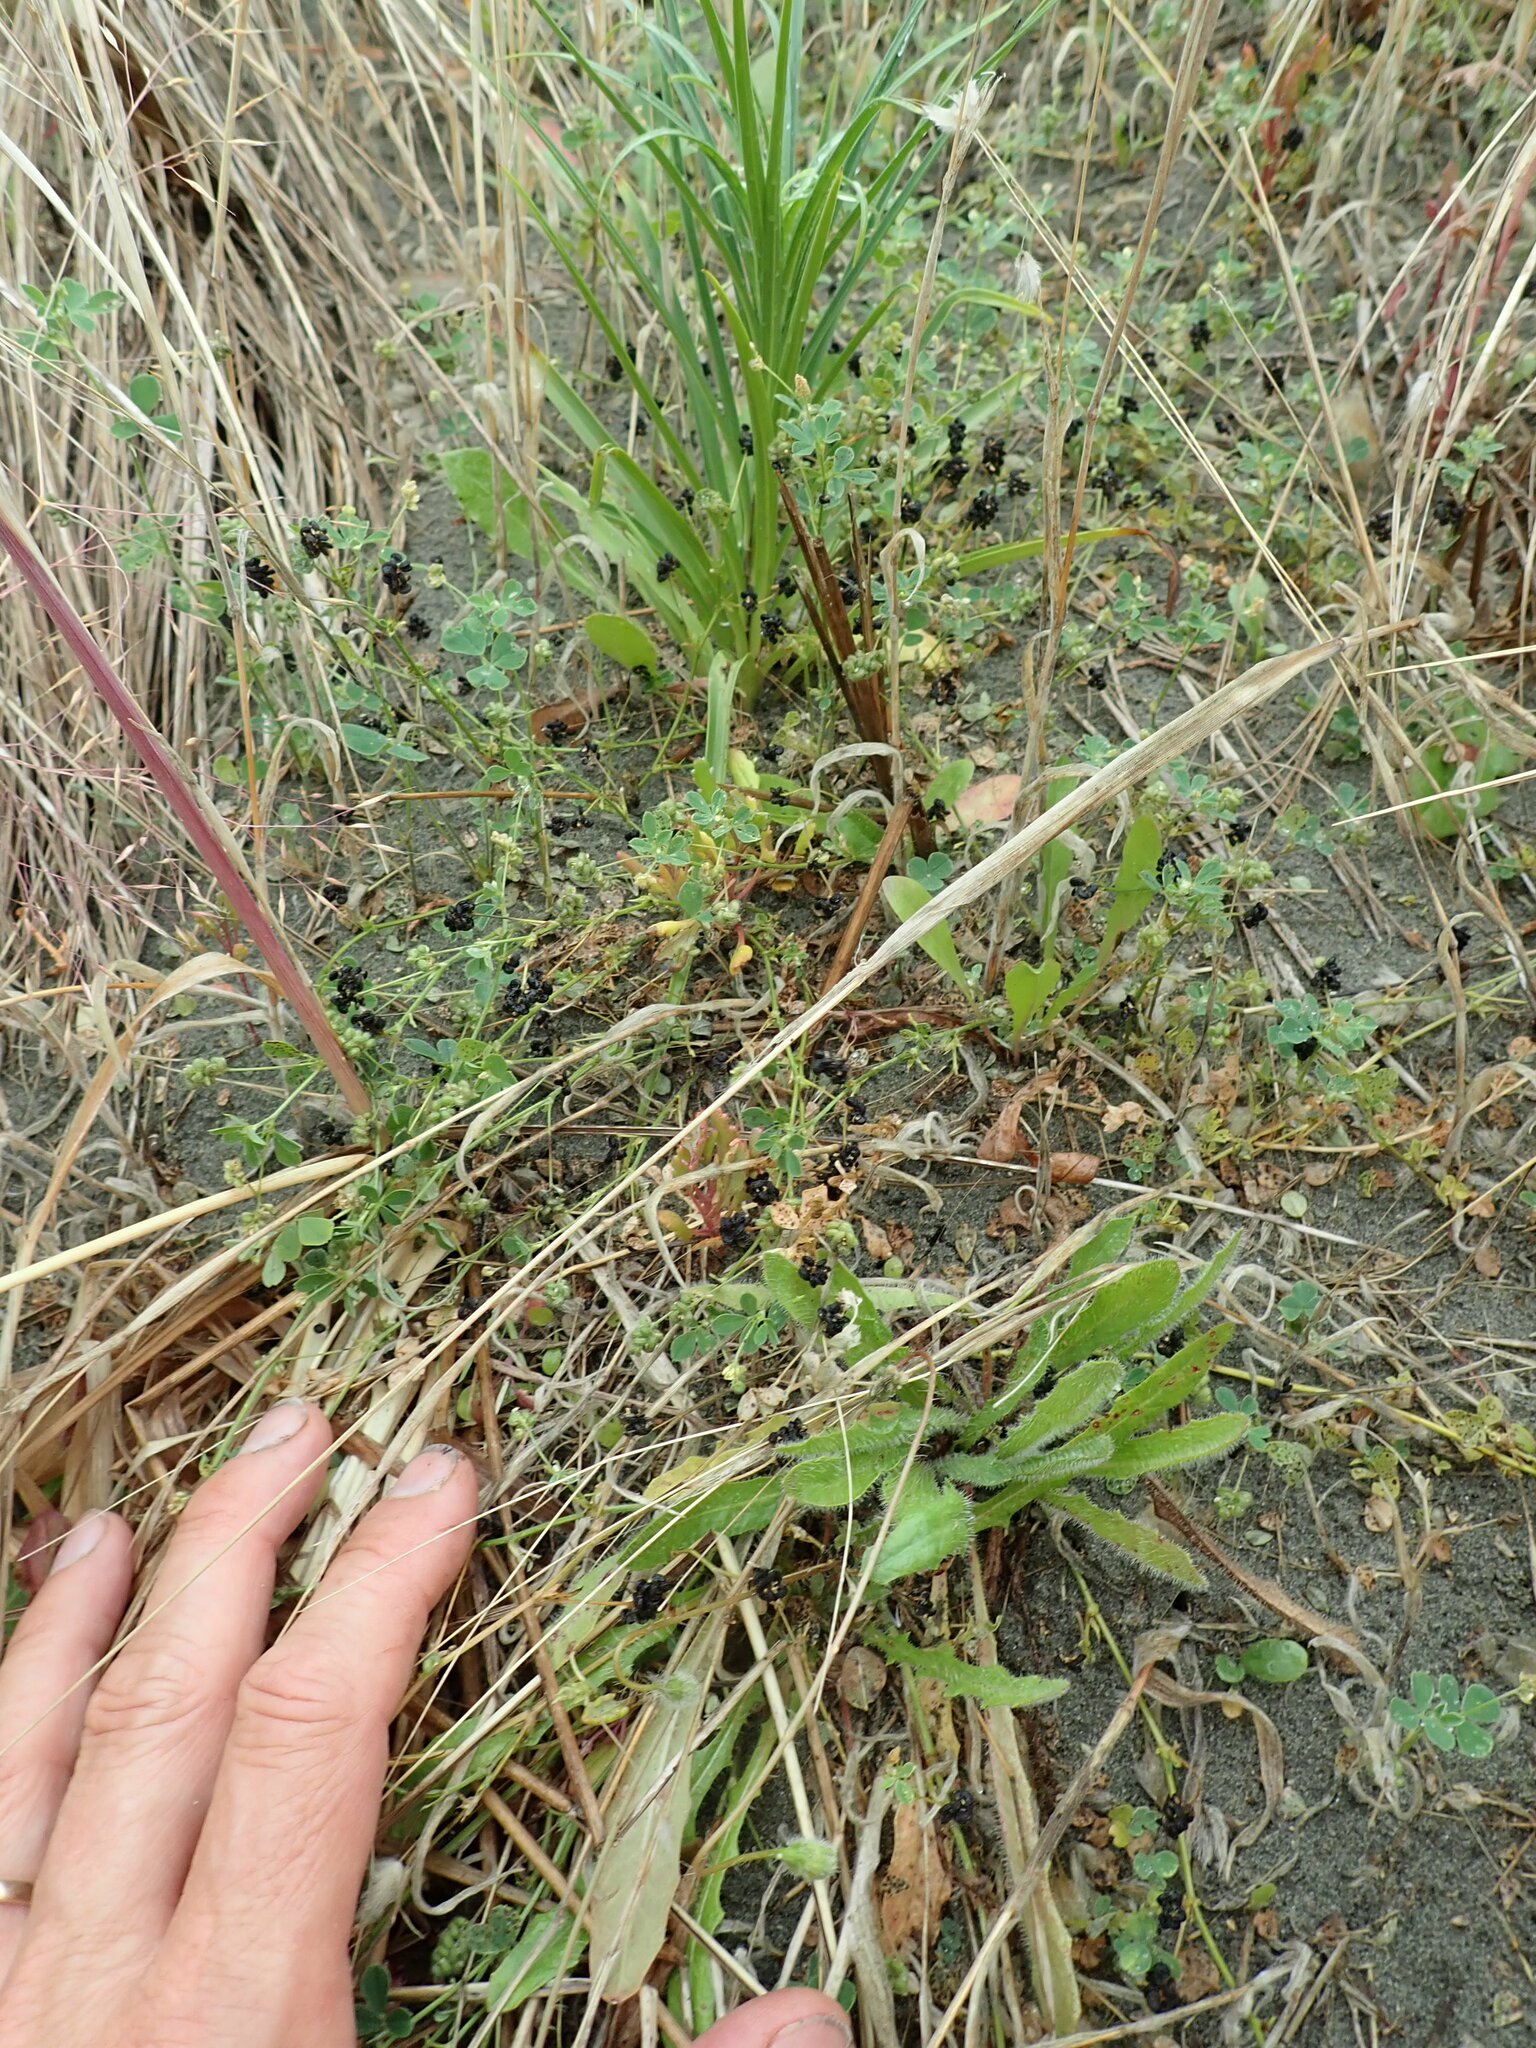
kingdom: Plantae
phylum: Tracheophyta
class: Magnoliopsida
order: Fabales
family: Fabaceae
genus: Medicago
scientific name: Medicago lupulina
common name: Black medick
